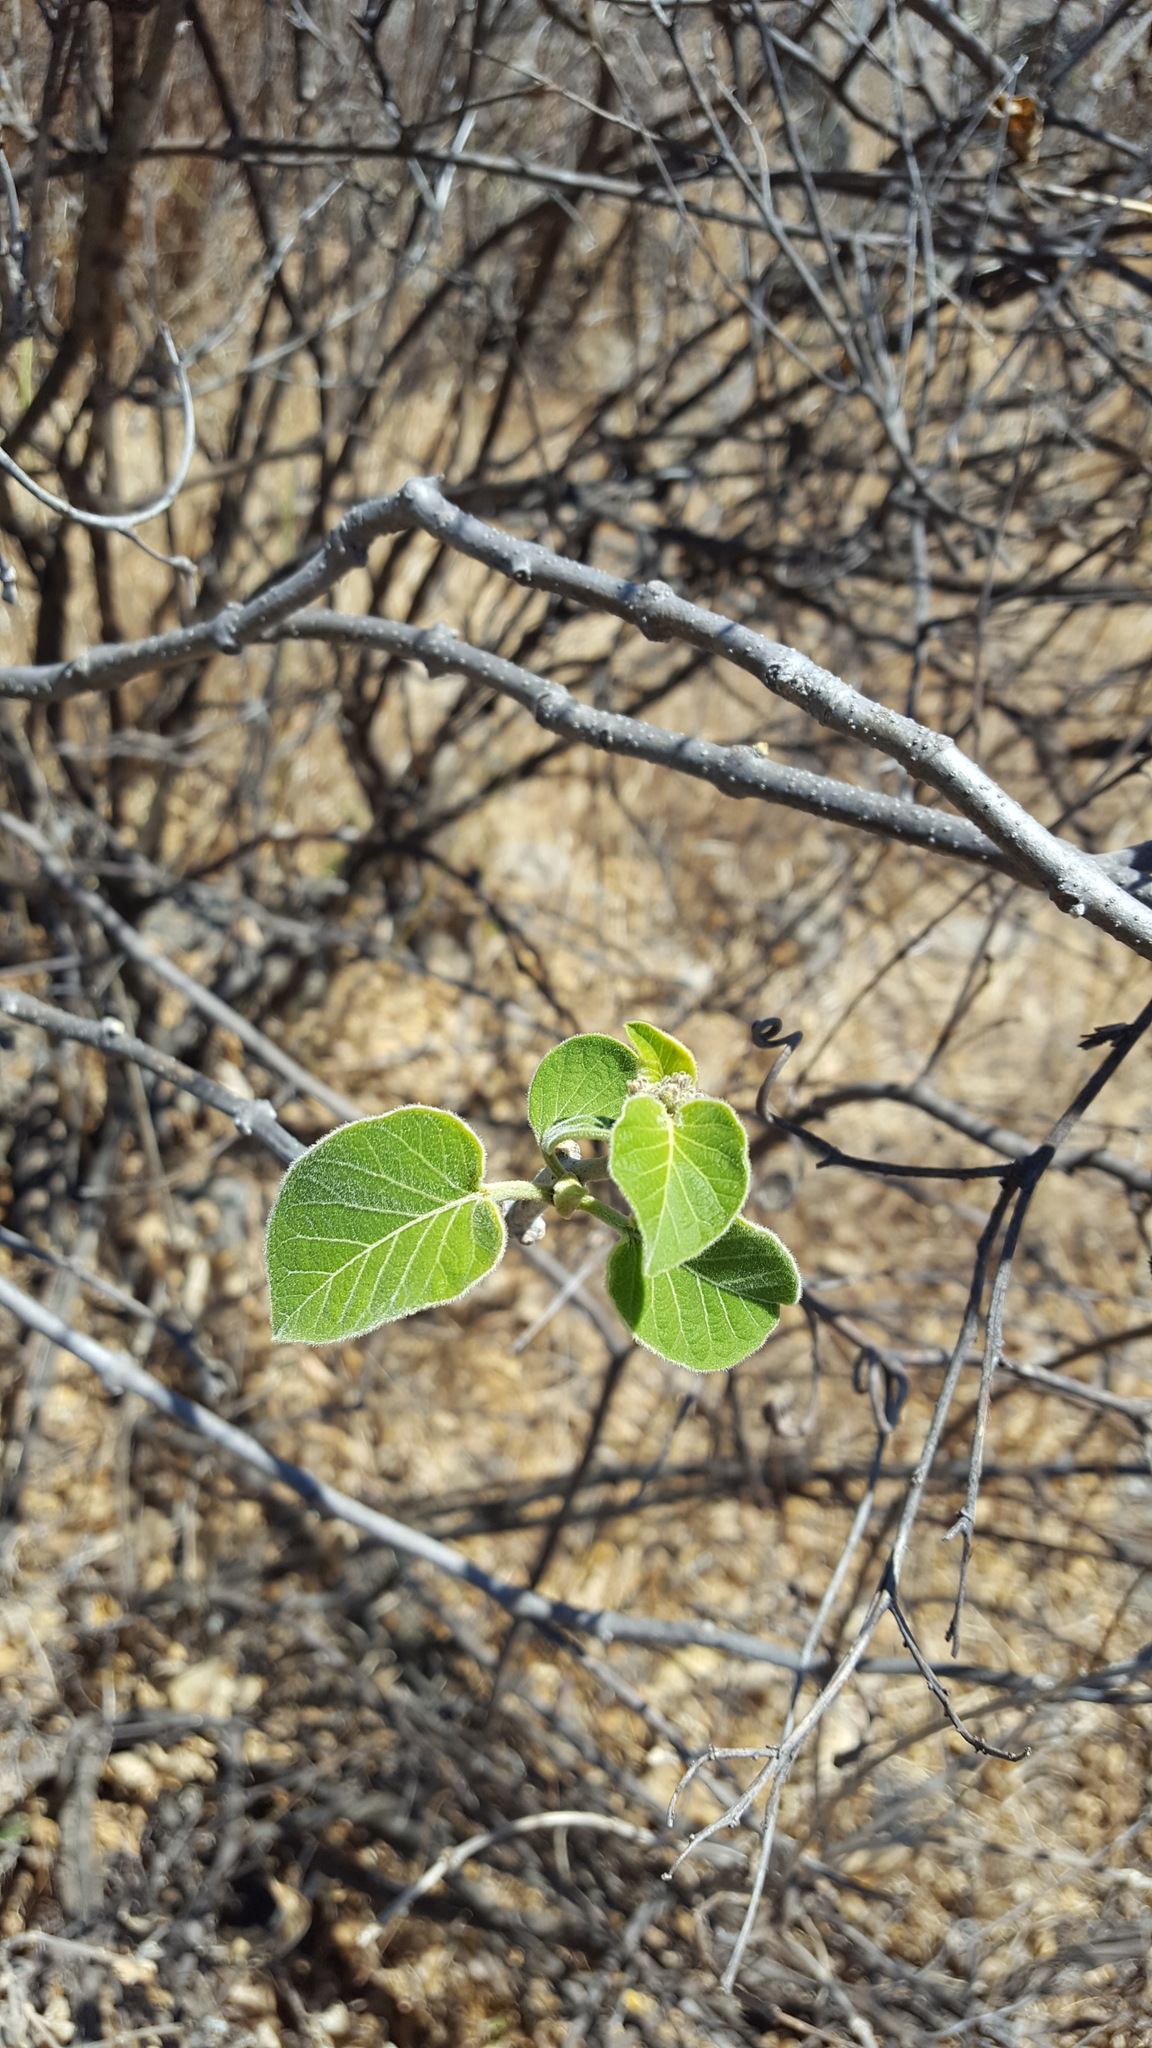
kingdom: Plantae
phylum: Tracheophyta
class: Magnoliopsida
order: Gentianales
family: Apocynaceae
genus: Ruehssia
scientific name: Ruehssia mexicana
